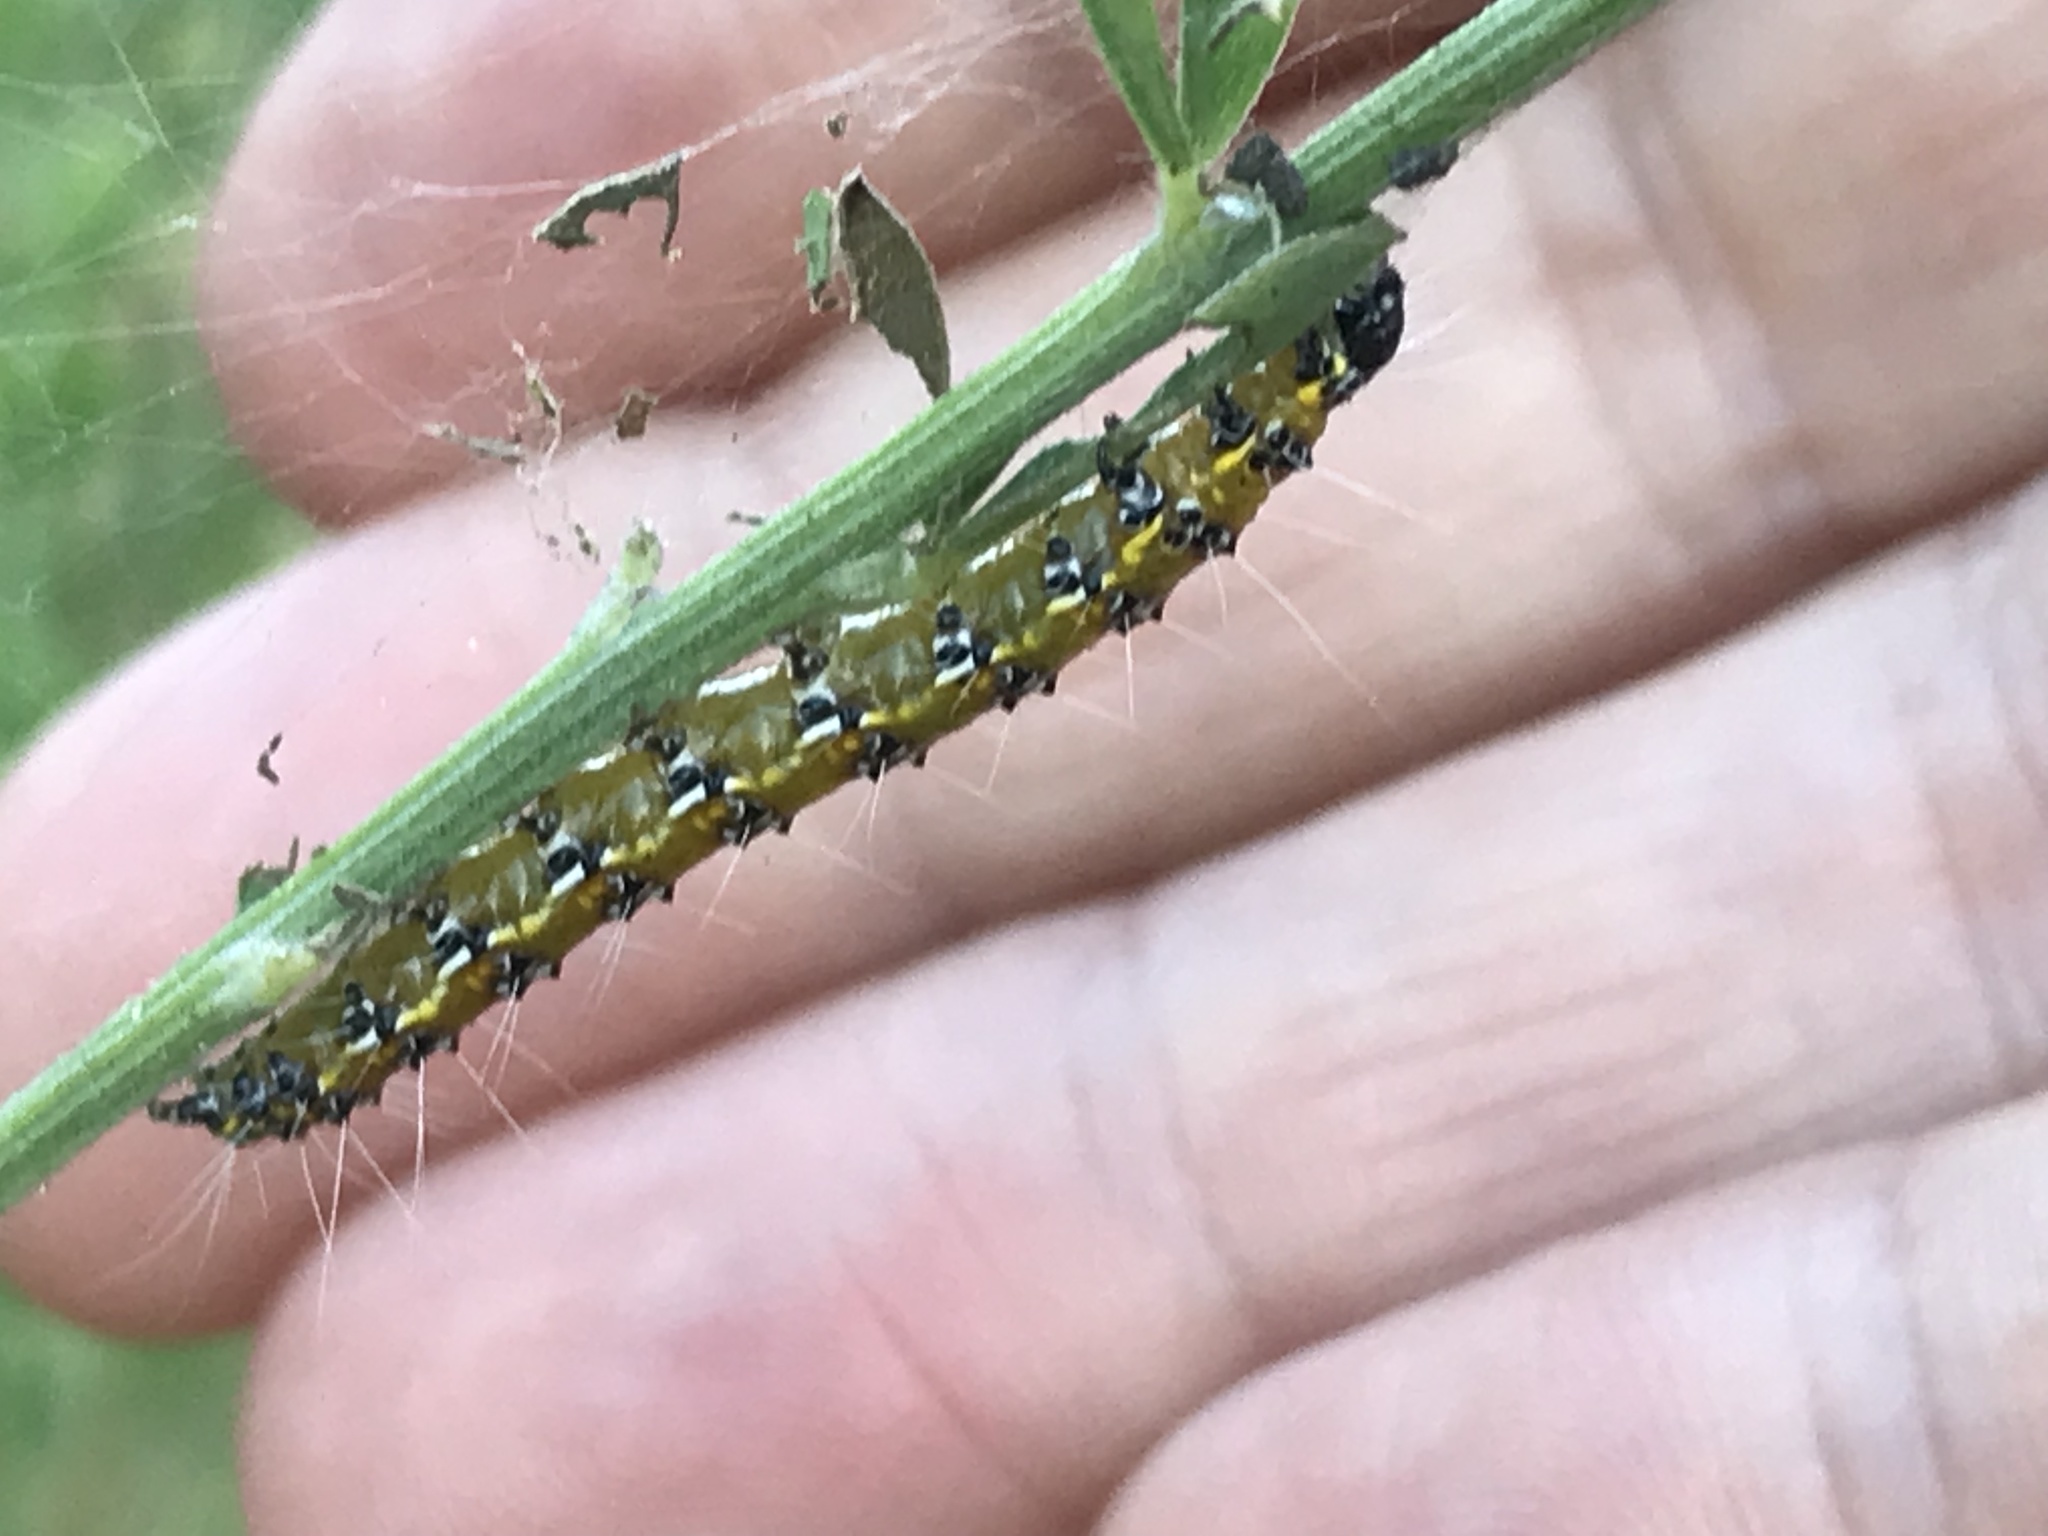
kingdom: Animalia
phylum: Arthropoda
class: Insecta
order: Lepidoptera
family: Crambidae
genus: Uresiphita
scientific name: Uresiphita reversalis
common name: Genista broom moth
